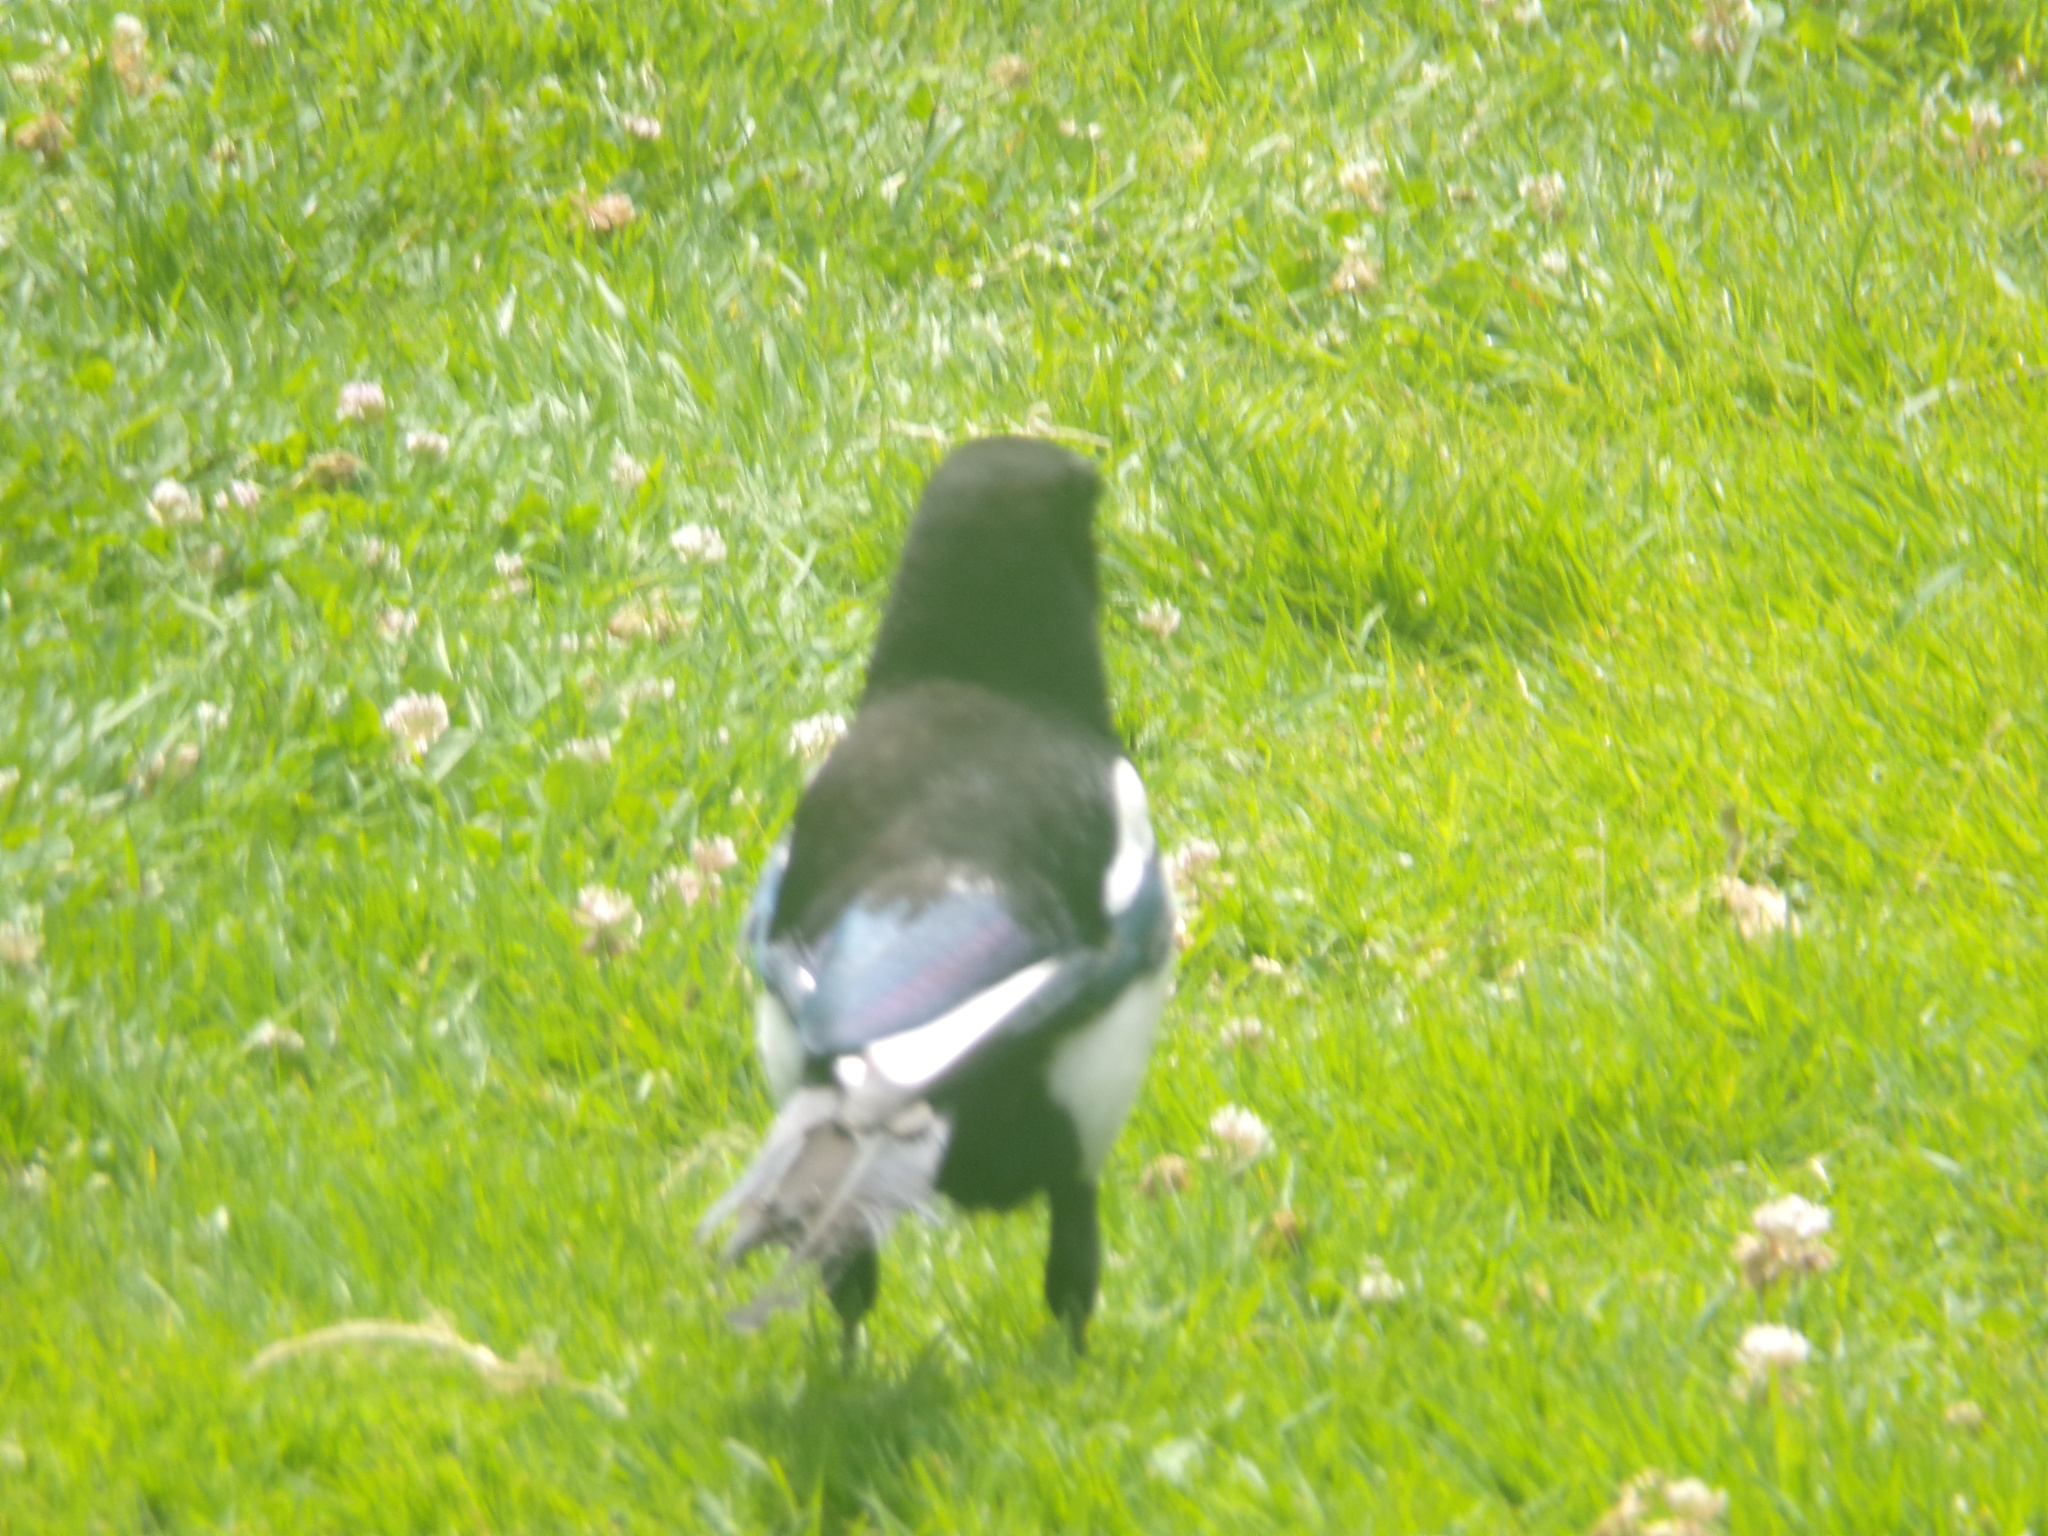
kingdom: Animalia
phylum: Chordata
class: Aves
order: Passeriformes
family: Corvidae
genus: Pica
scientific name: Pica pica
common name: Eurasian magpie
